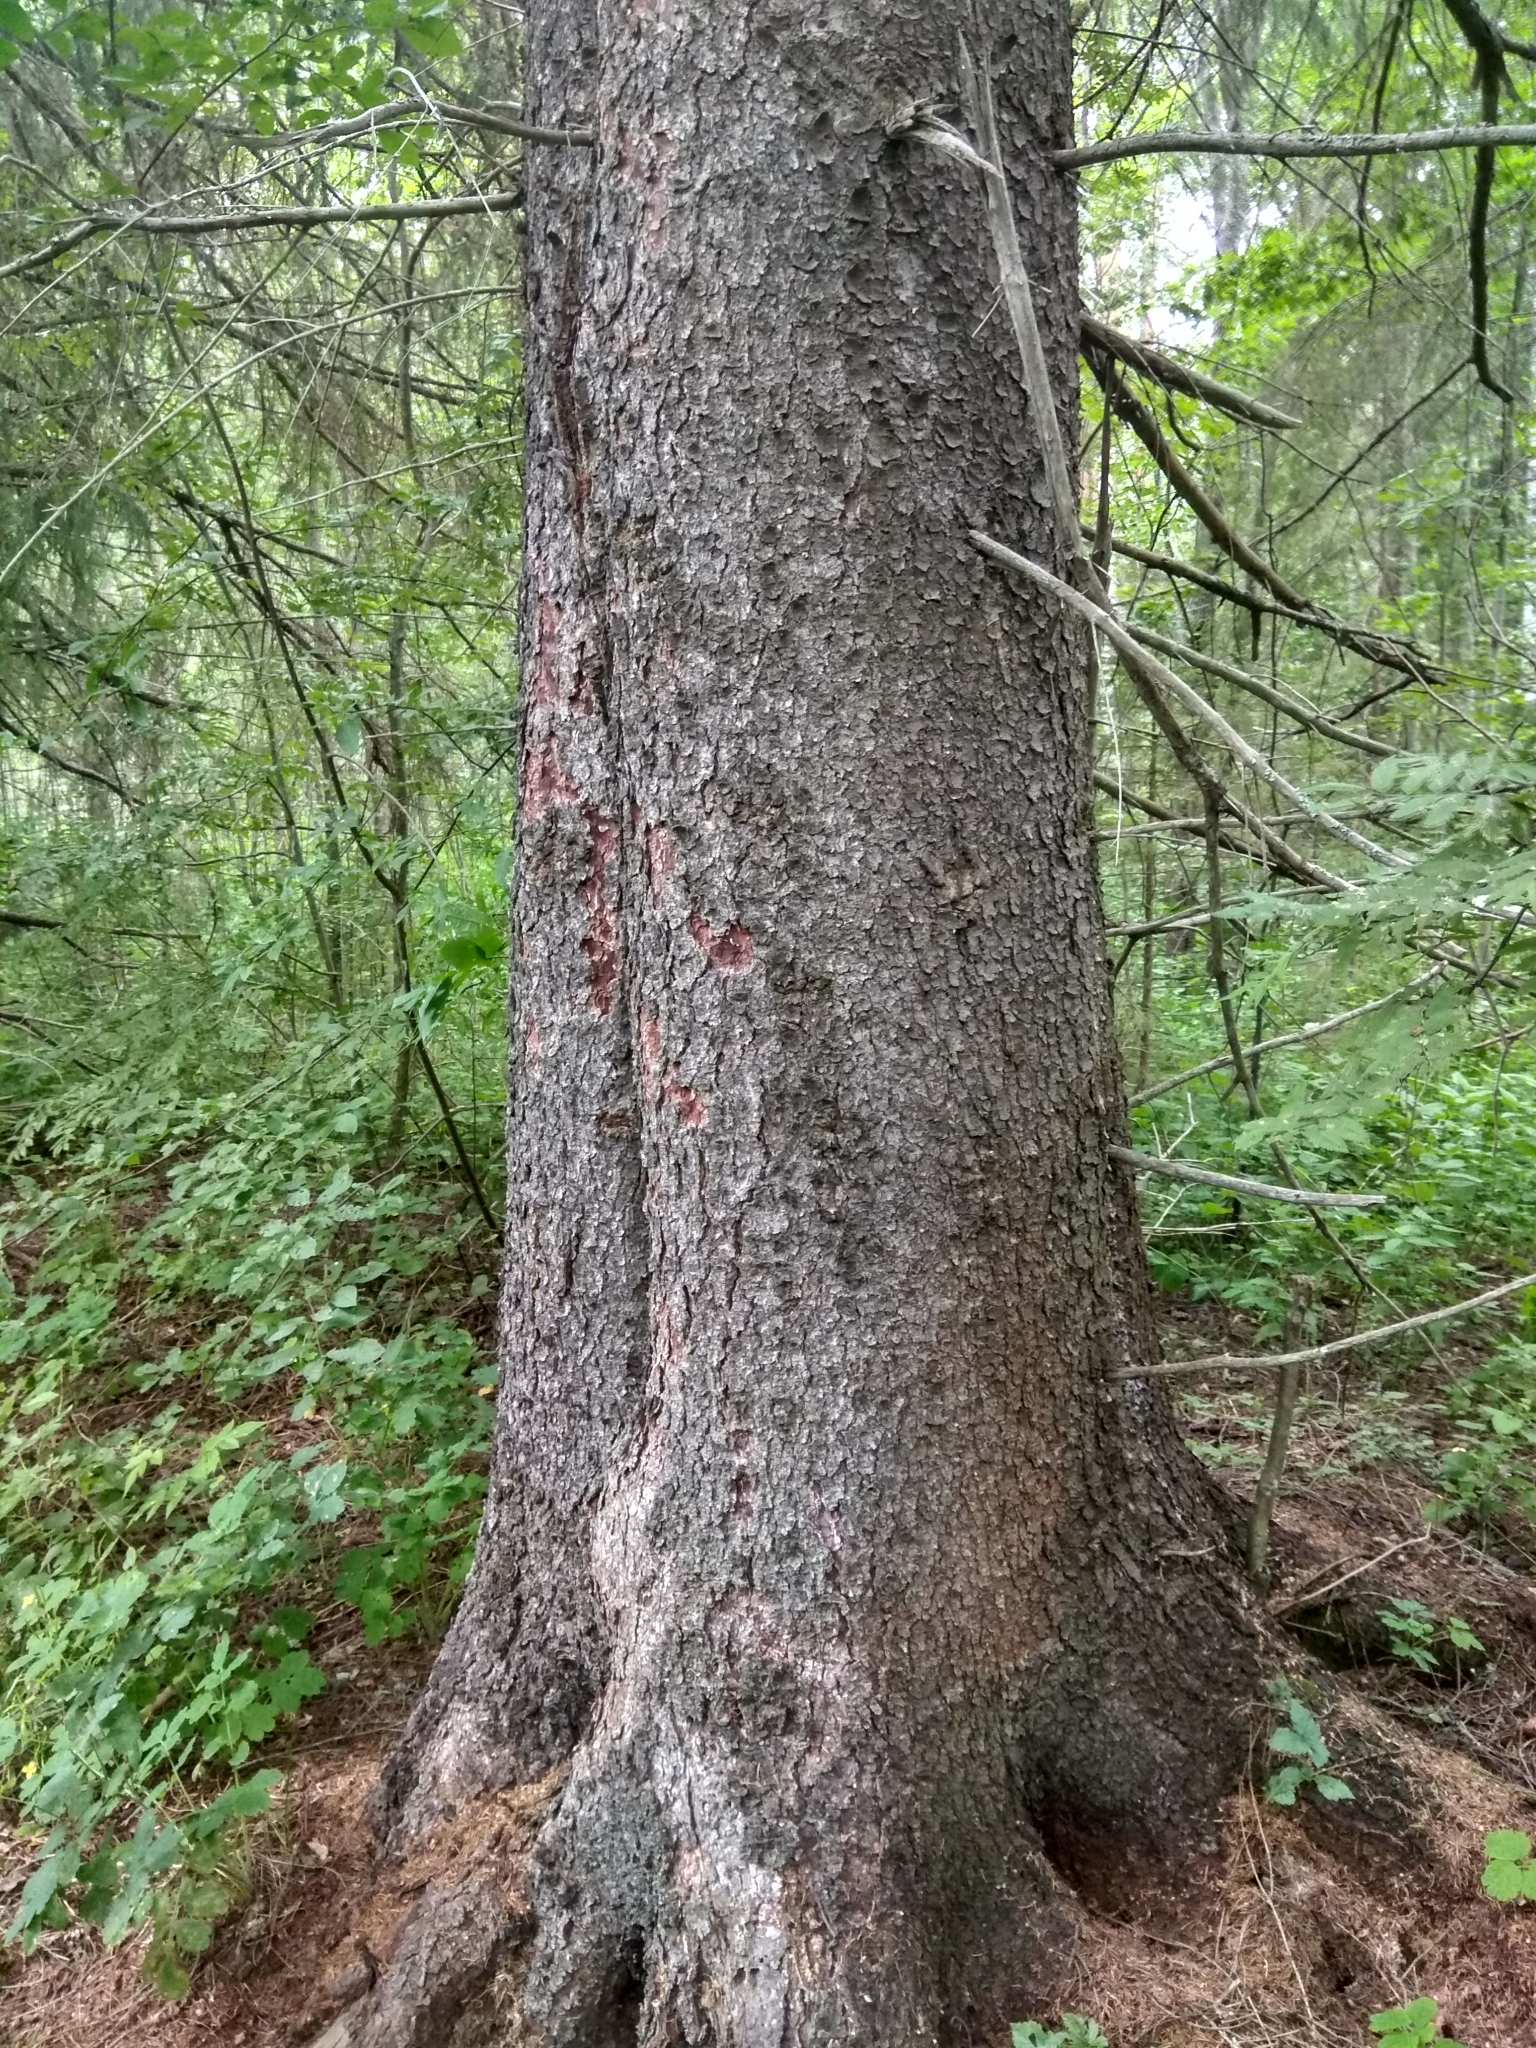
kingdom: Plantae
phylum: Tracheophyta
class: Pinopsida
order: Pinales
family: Pinaceae
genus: Picea
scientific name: Picea abies
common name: Norway spruce
